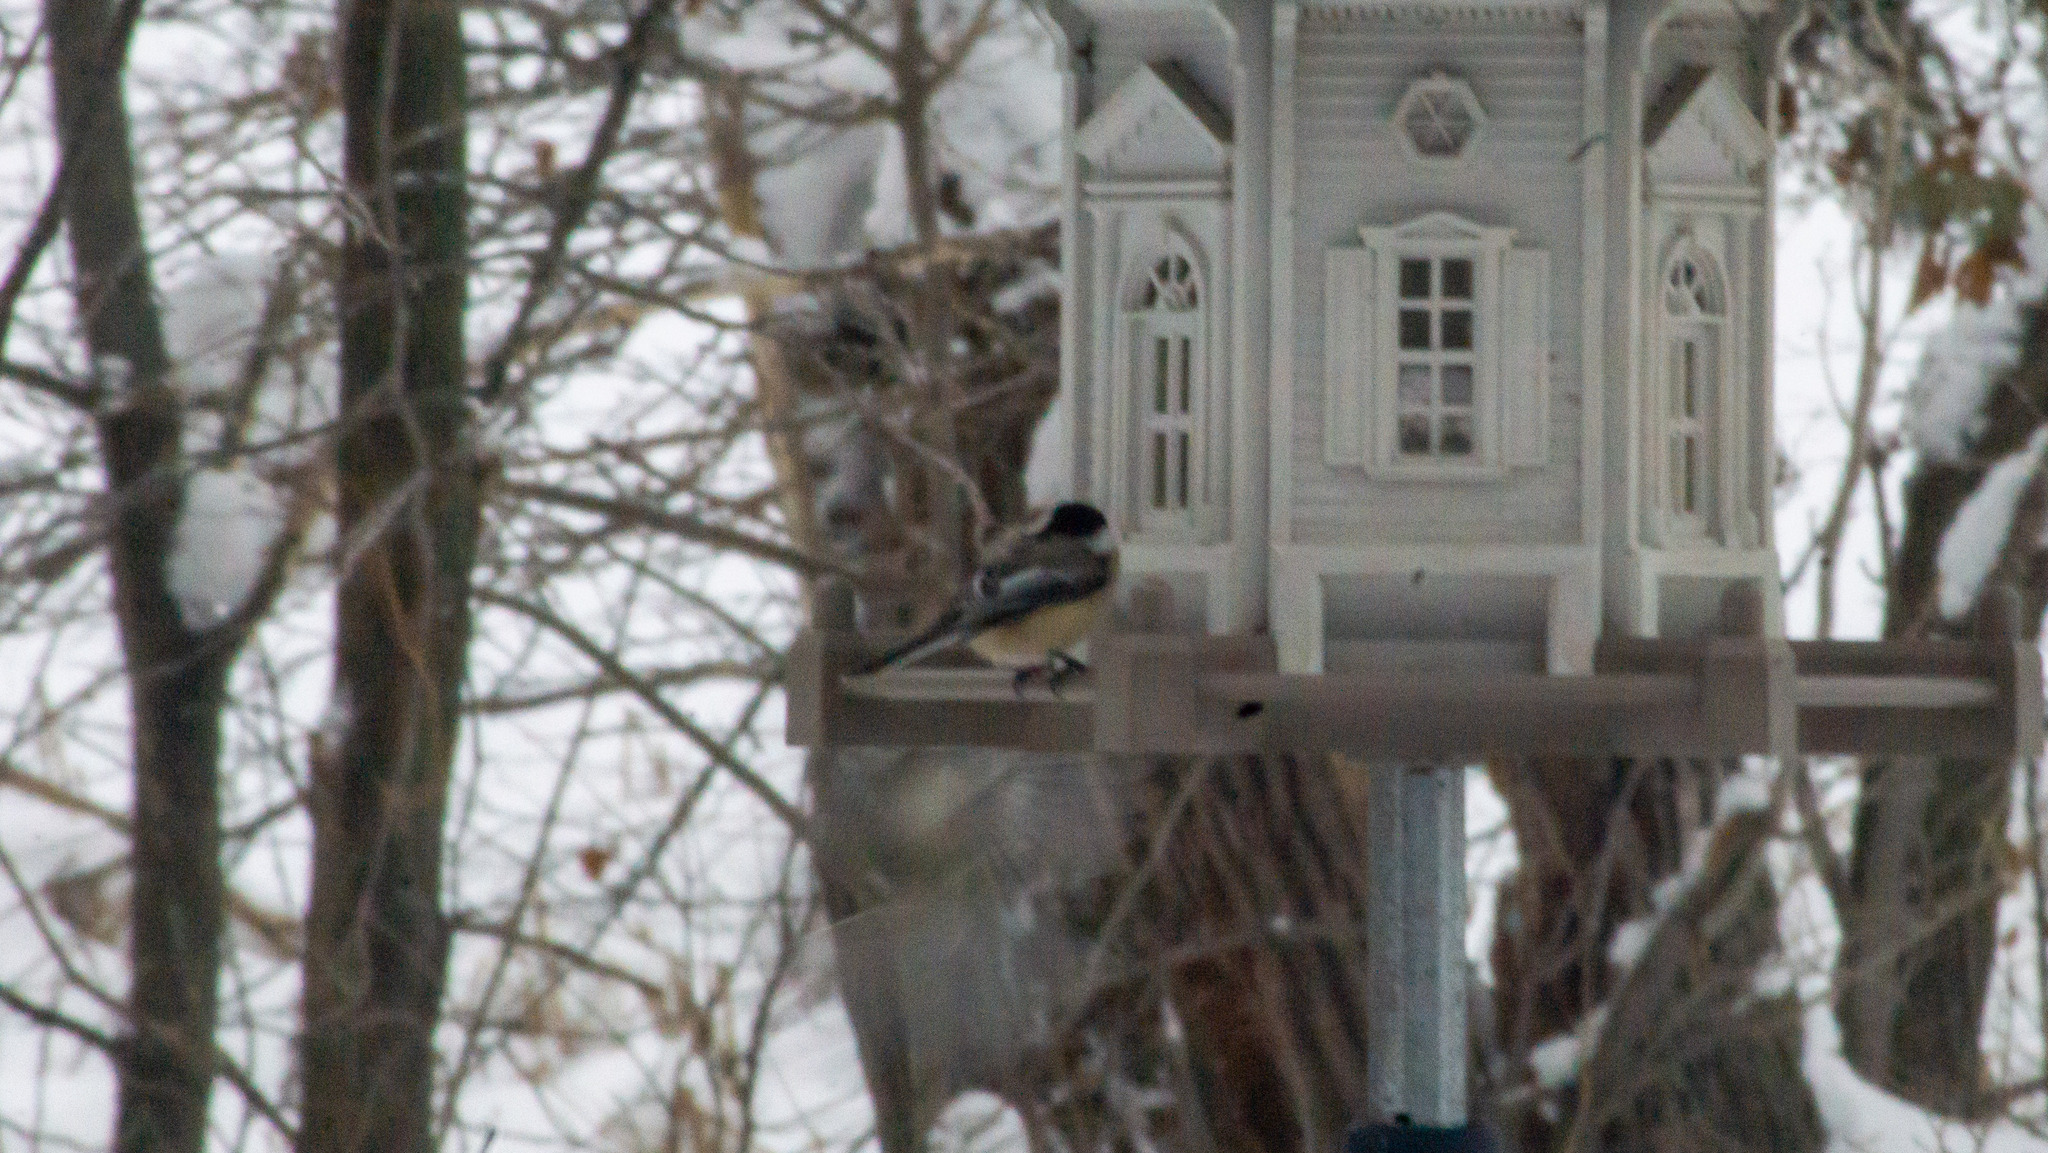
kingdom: Animalia
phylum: Chordata
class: Aves
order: Passeriformes
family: Paridae
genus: Poecile
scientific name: Poecile atricapillus
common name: Black-capped chickadee
